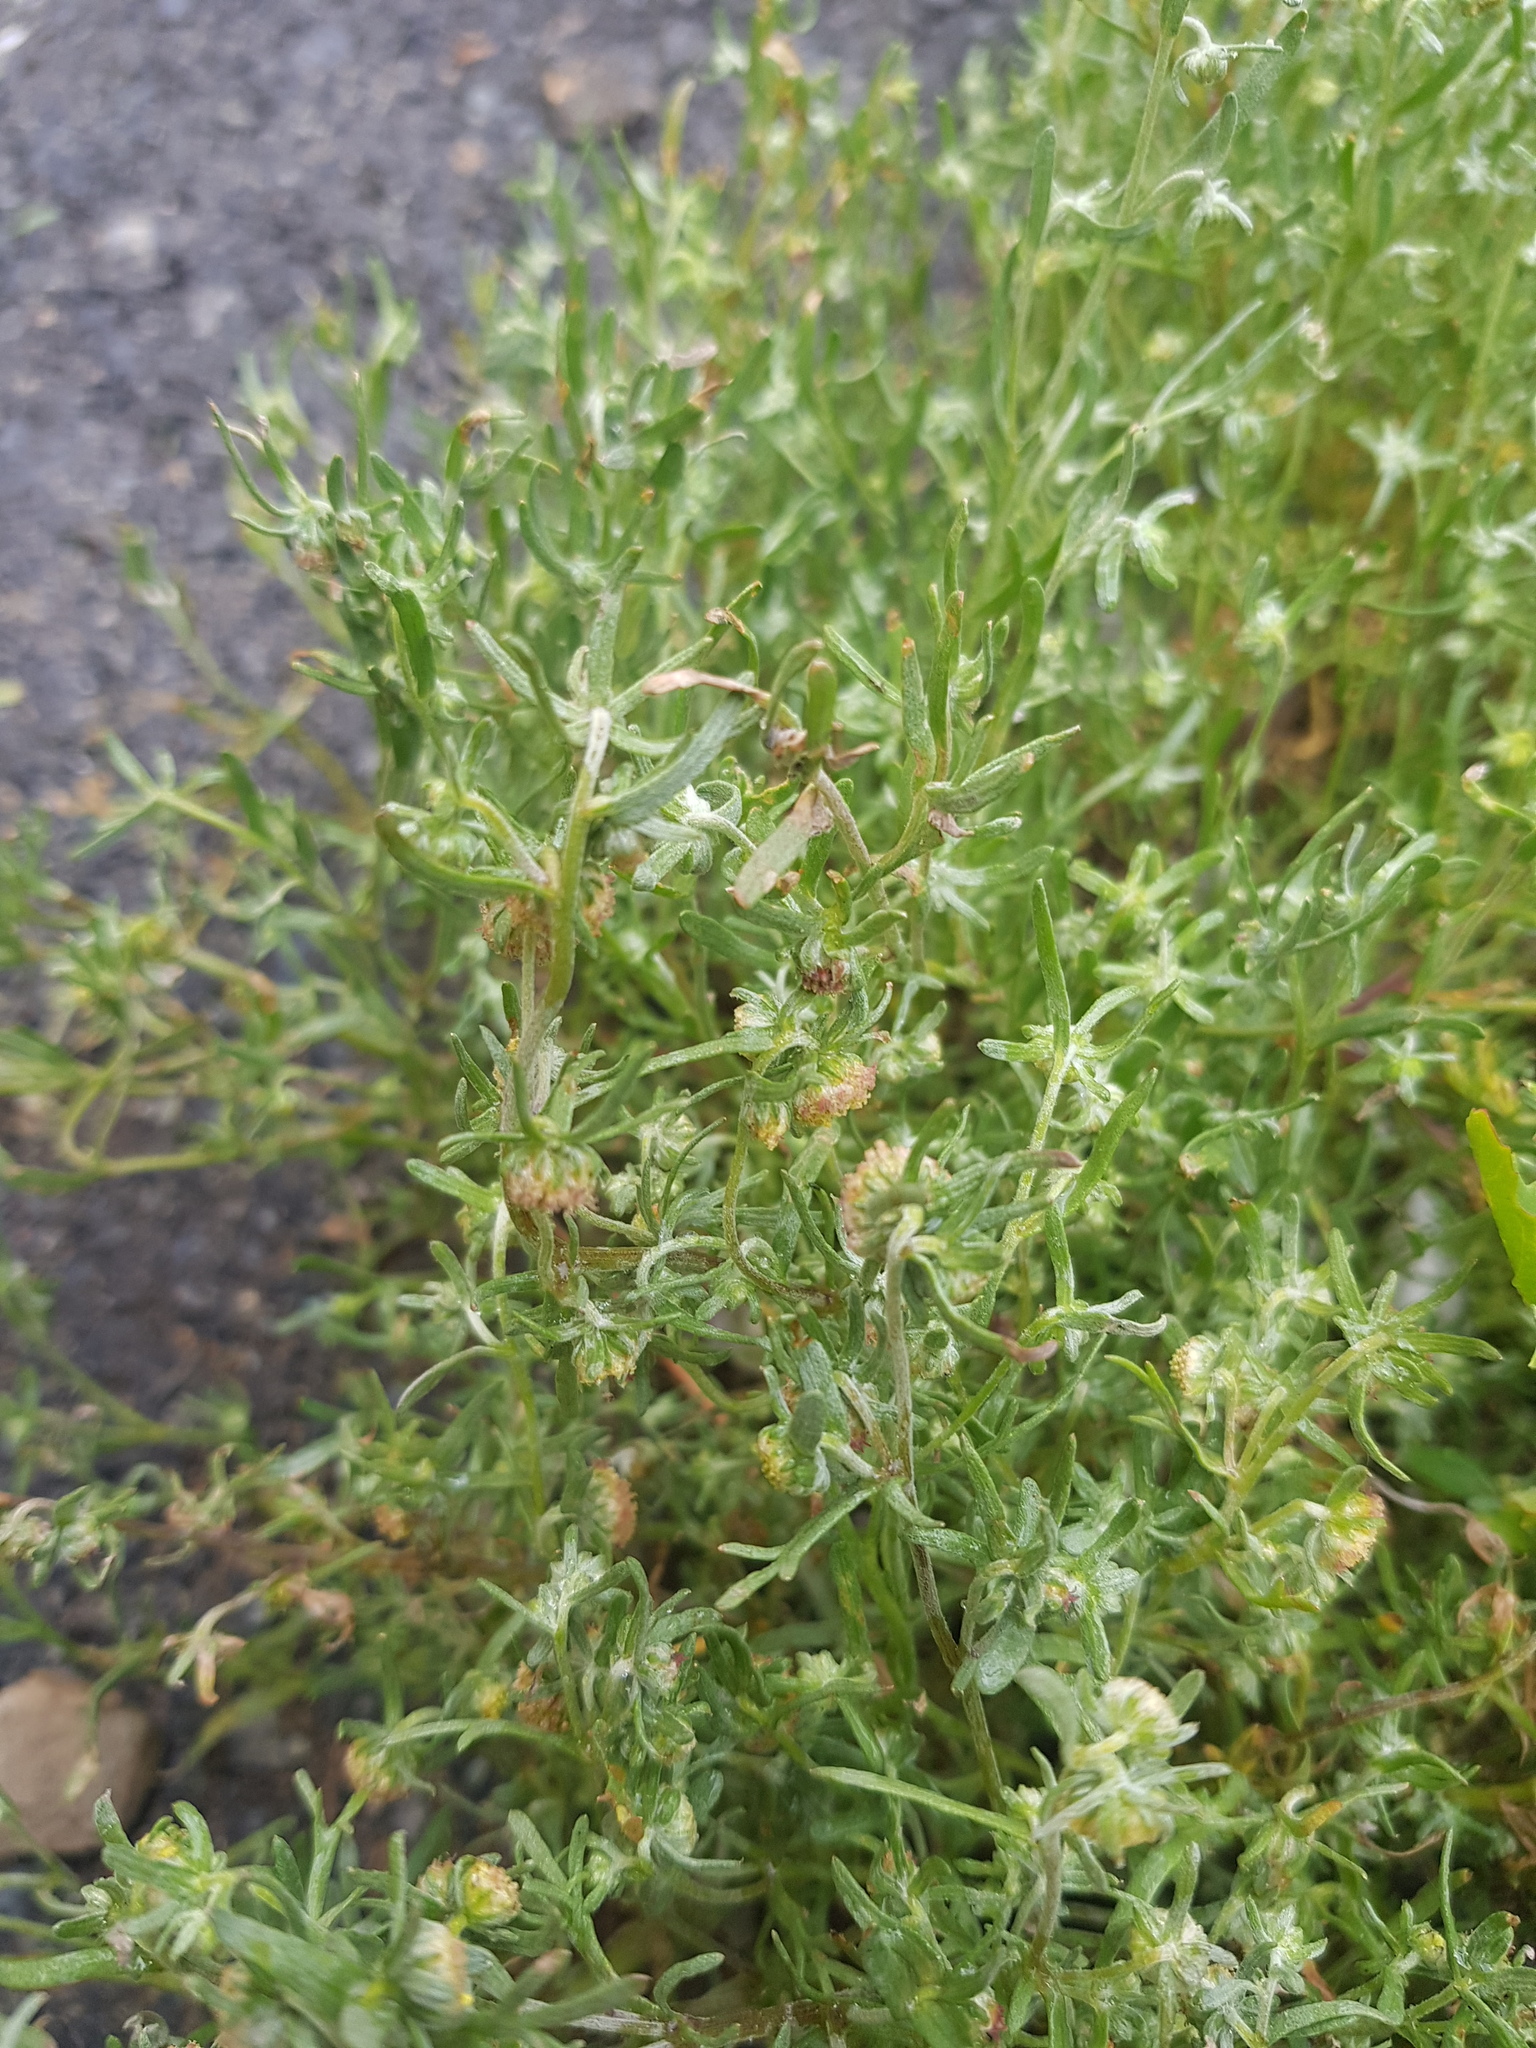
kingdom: Plantae
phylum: Tracheophyta
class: Magnoliopsida
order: Asterales
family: Asteraceae
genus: Artemisia
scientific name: Artemisia macrocephala
